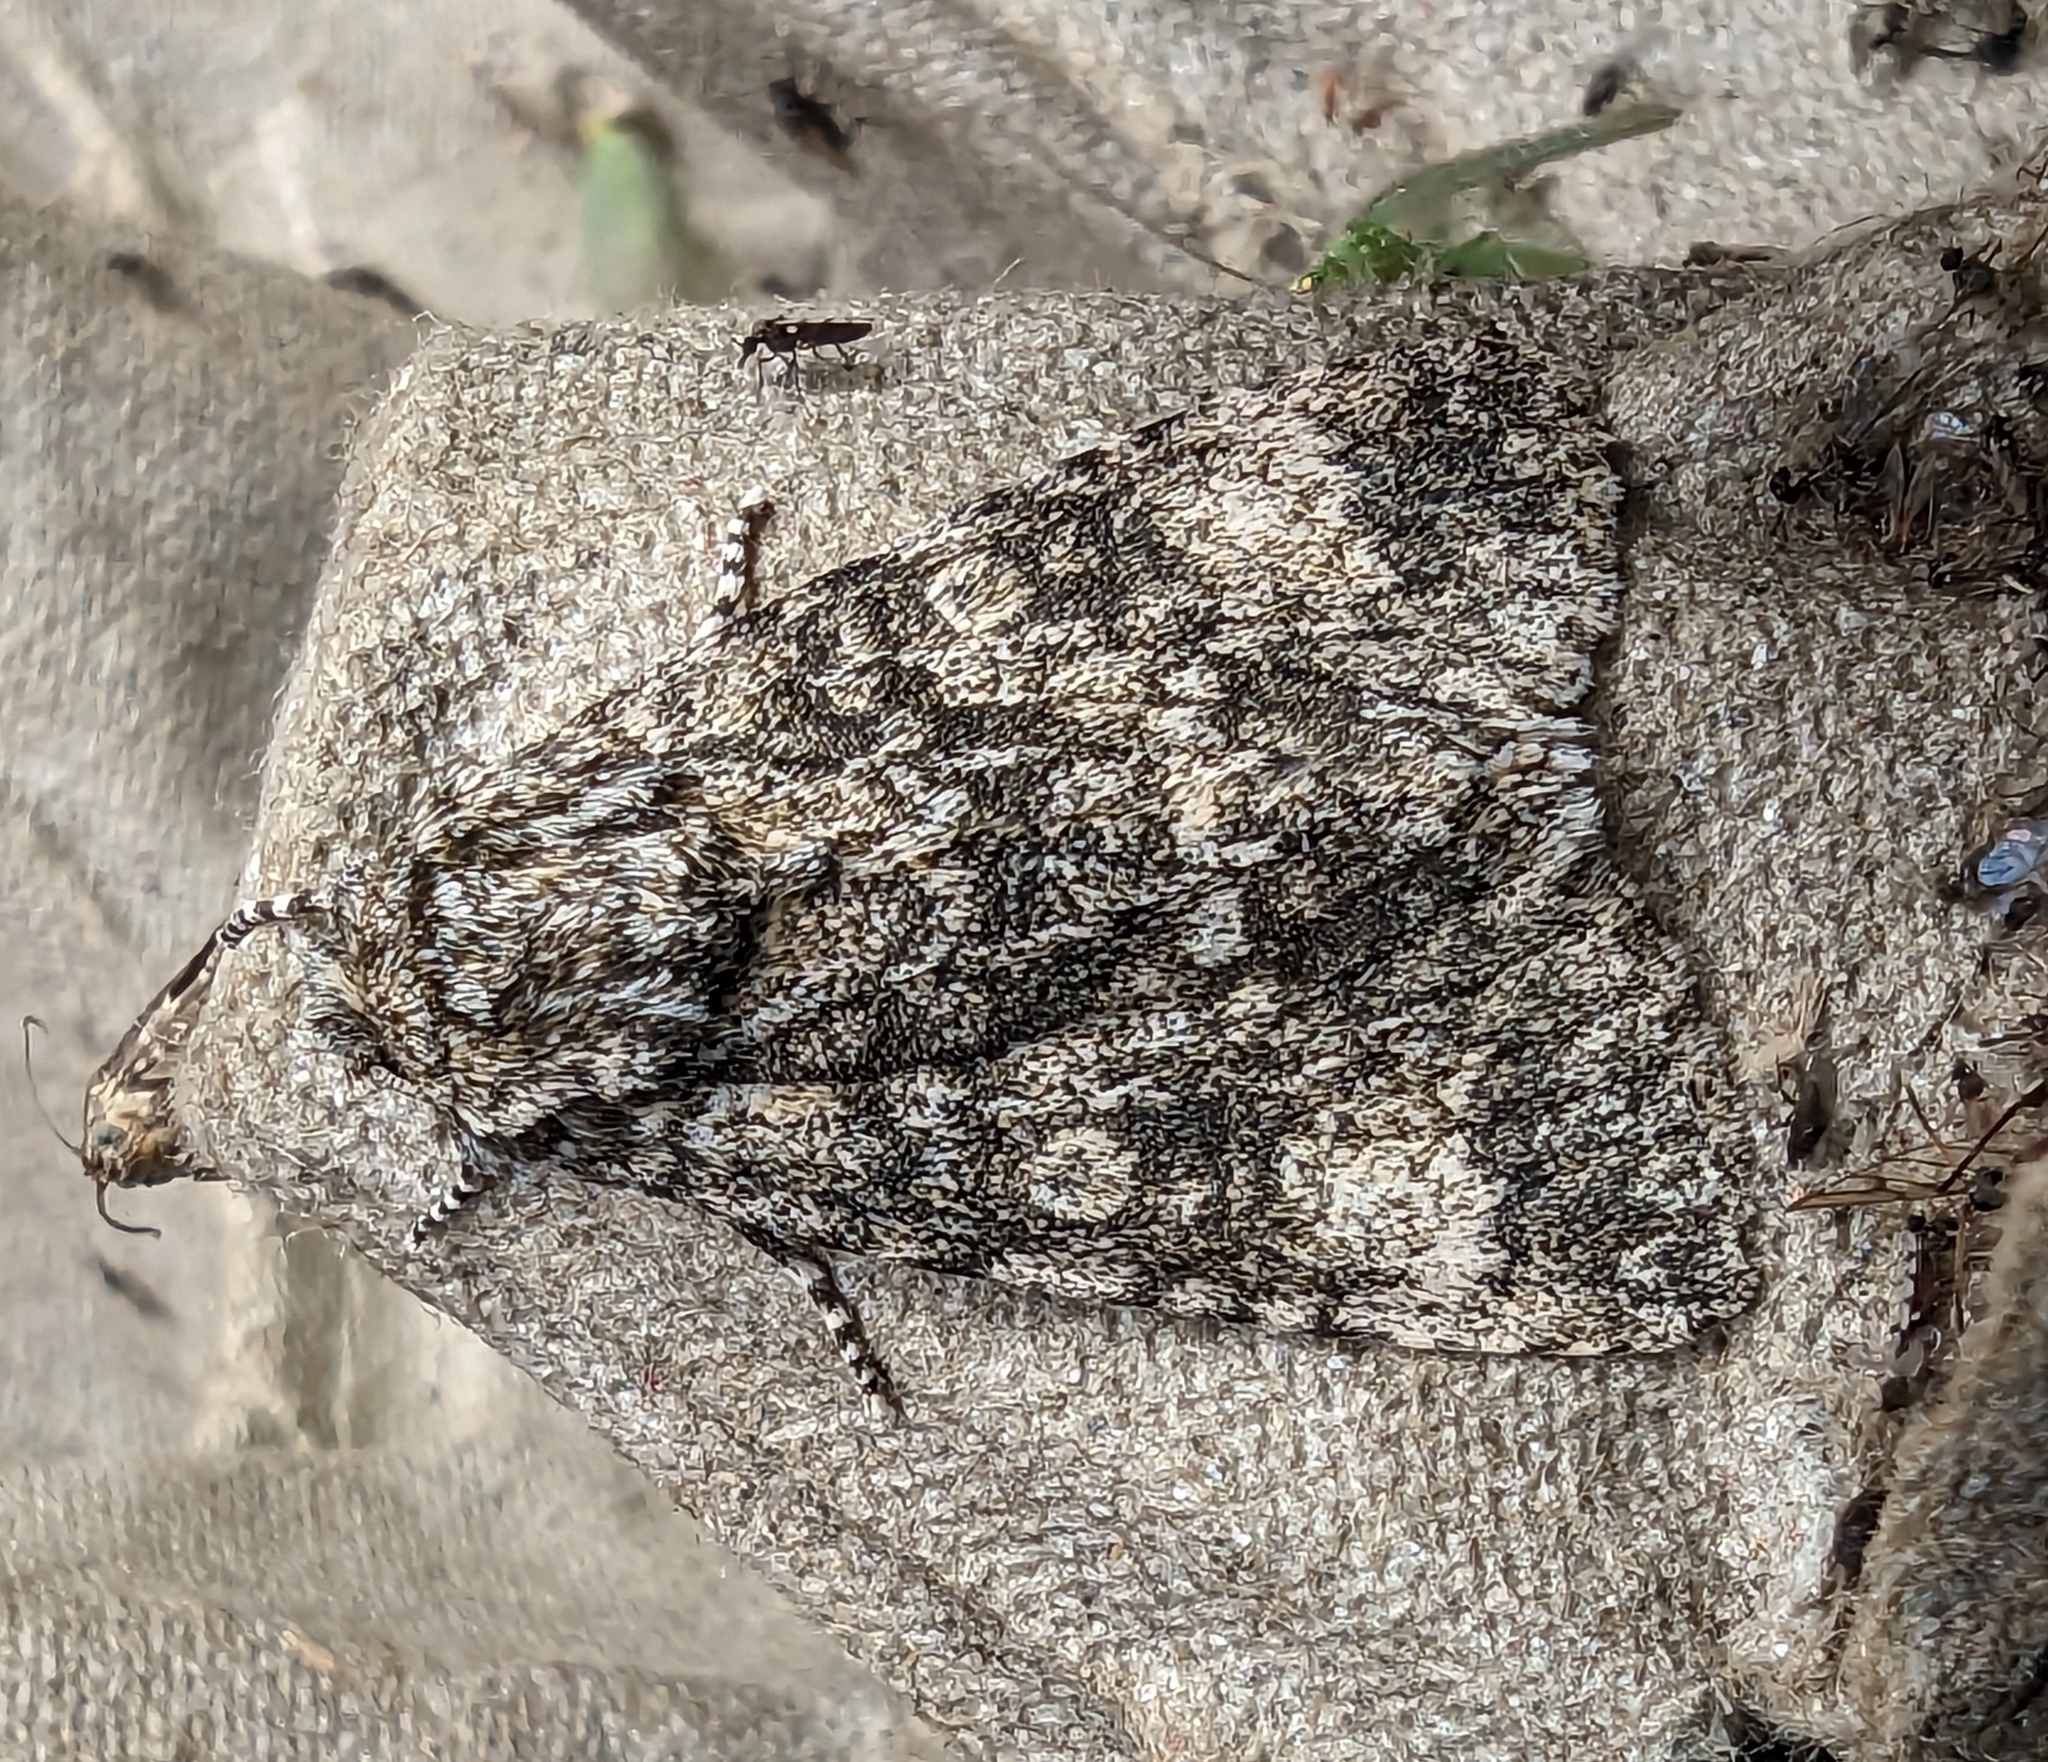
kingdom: Animalia
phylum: Arthropoda
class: Insecta
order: Lepidoptera
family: Noctuidae
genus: Acronicta
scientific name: Acronicta megacephala
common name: Poplar grey
